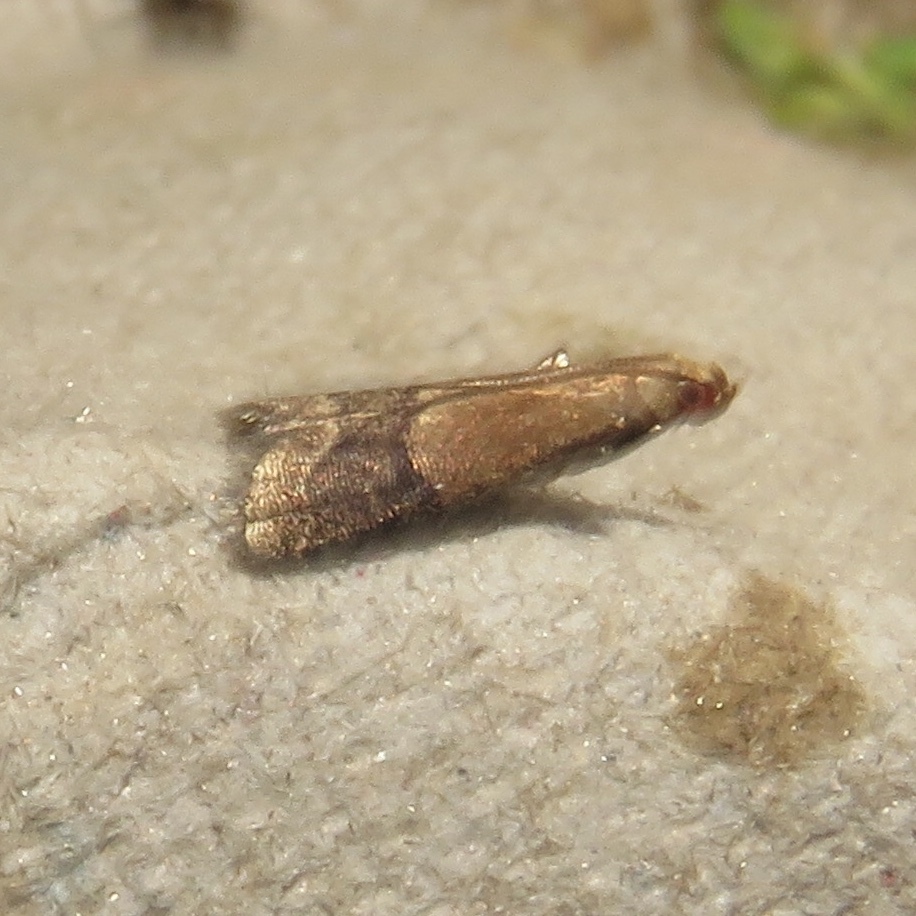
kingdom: Animalia
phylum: Arthropoda
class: Insecta
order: Lepidoptera
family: Pyralidae
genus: Eulogia
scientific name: Eulogia ochrifrontella
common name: Broad-banded eulogia moth
